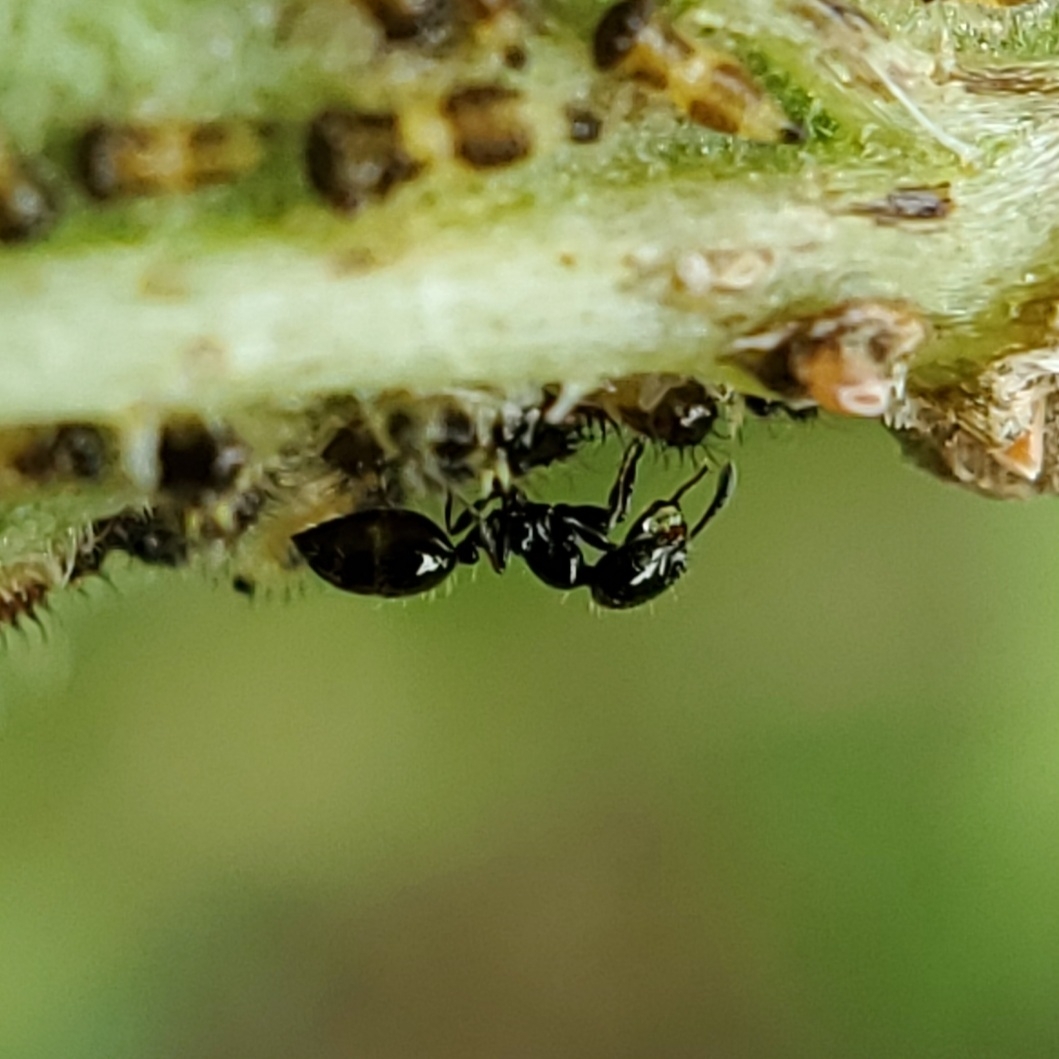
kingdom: Animalia
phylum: Arthropoda
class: Insecta
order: Hymenoptera
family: Formicidae
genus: Monomorium
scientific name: Monomorium minimum
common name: Little black ant
